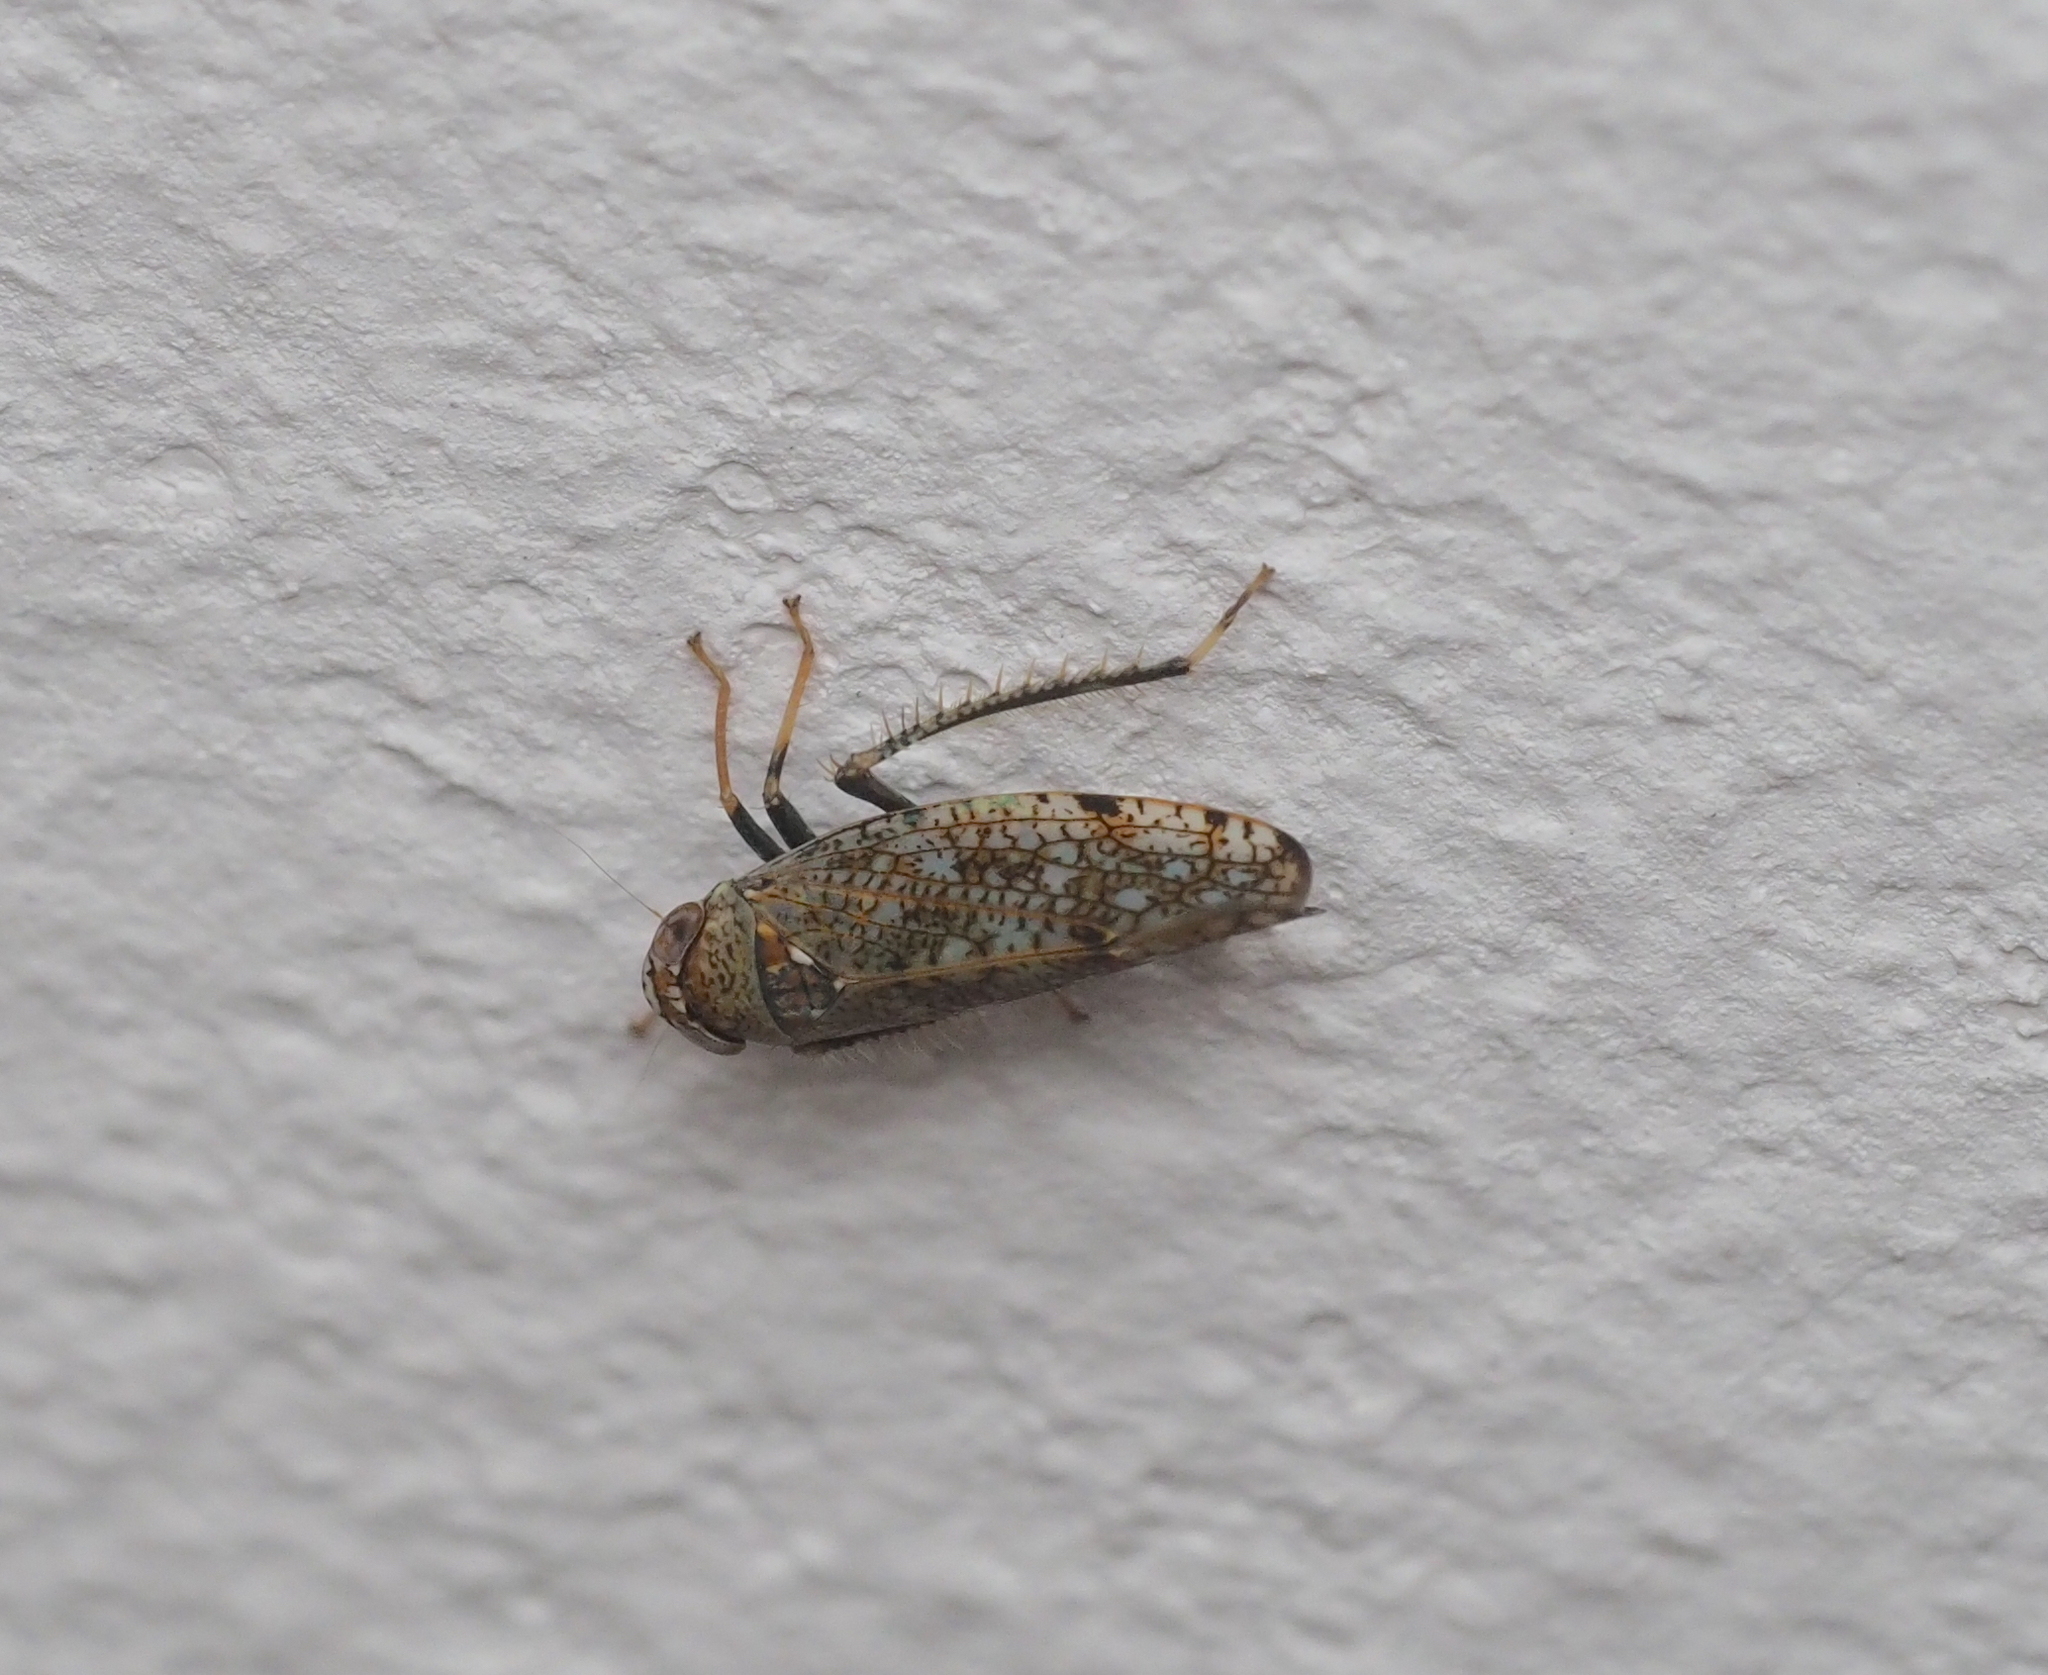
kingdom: Animalia
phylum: Arthropoda
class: Insecta
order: Hemiptera
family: Cicadellidae
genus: Orientus
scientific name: Orientus ishidae
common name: Japanese leafhopper
